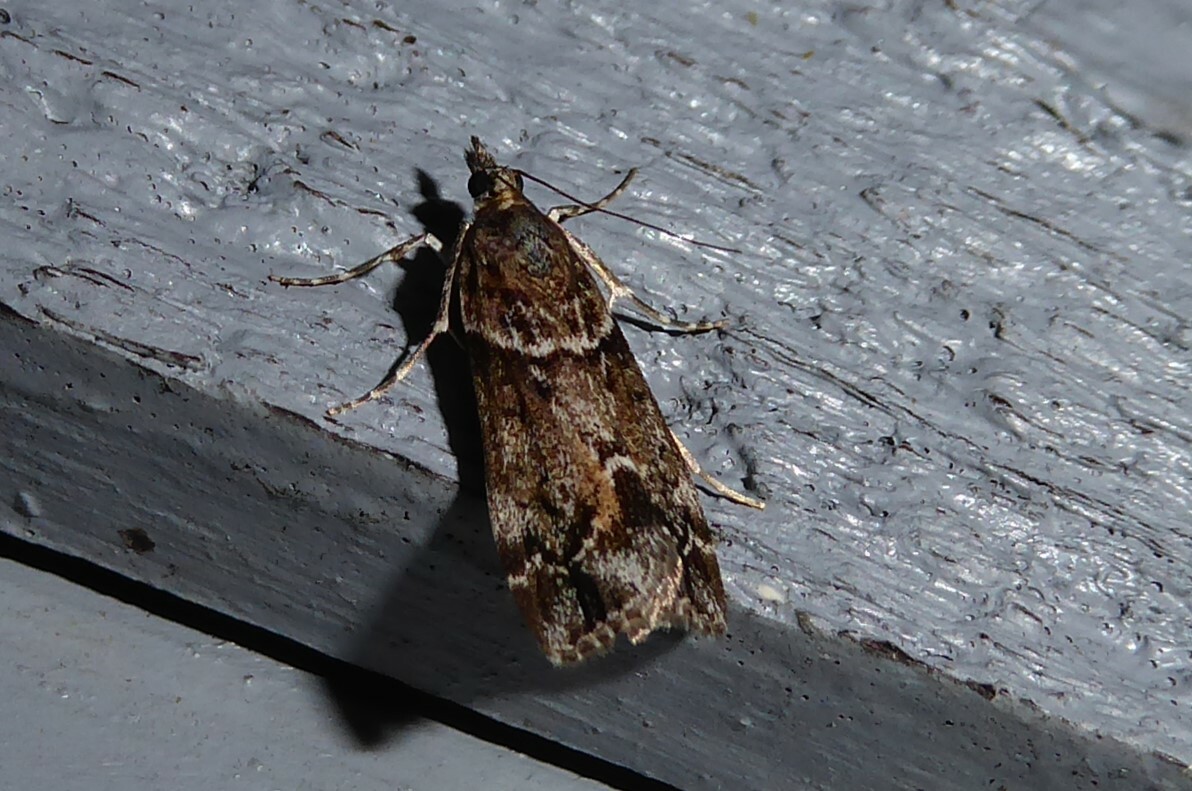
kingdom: Animalia
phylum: Arthropoda
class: Insecta
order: Lepidoptera
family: Crambidae
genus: Eudonia
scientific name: Eudonia submarginalis
